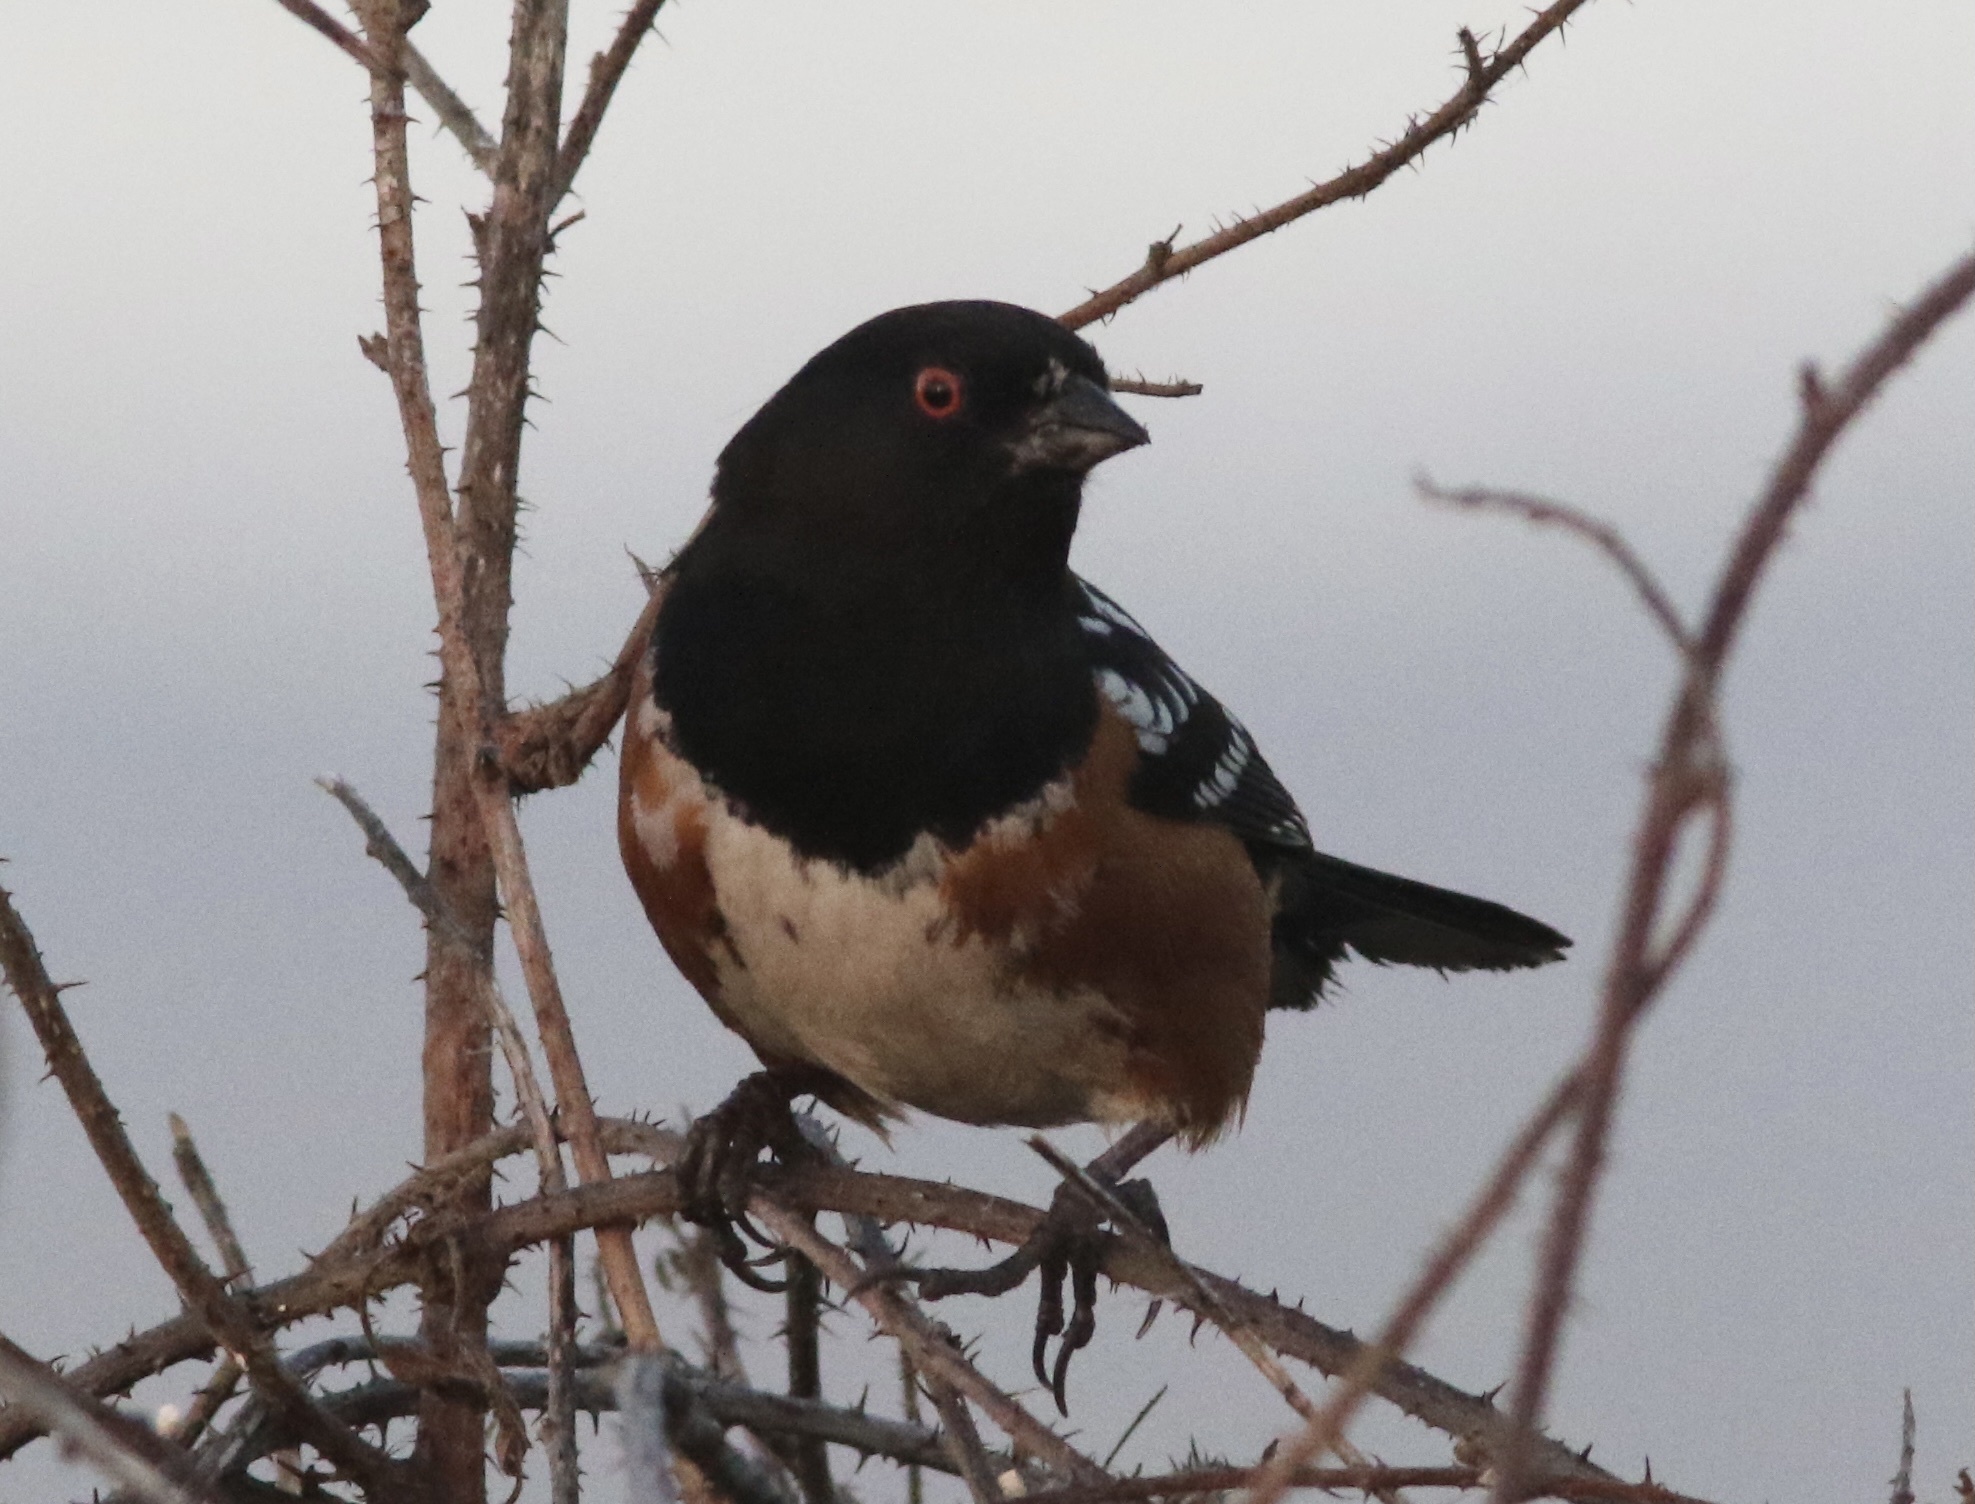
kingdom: Animalia
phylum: Chordata
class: Aves
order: Passeriformes
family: Passerellidae
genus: Pipilo
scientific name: Pipilo maculatus
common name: Spotted towhee
